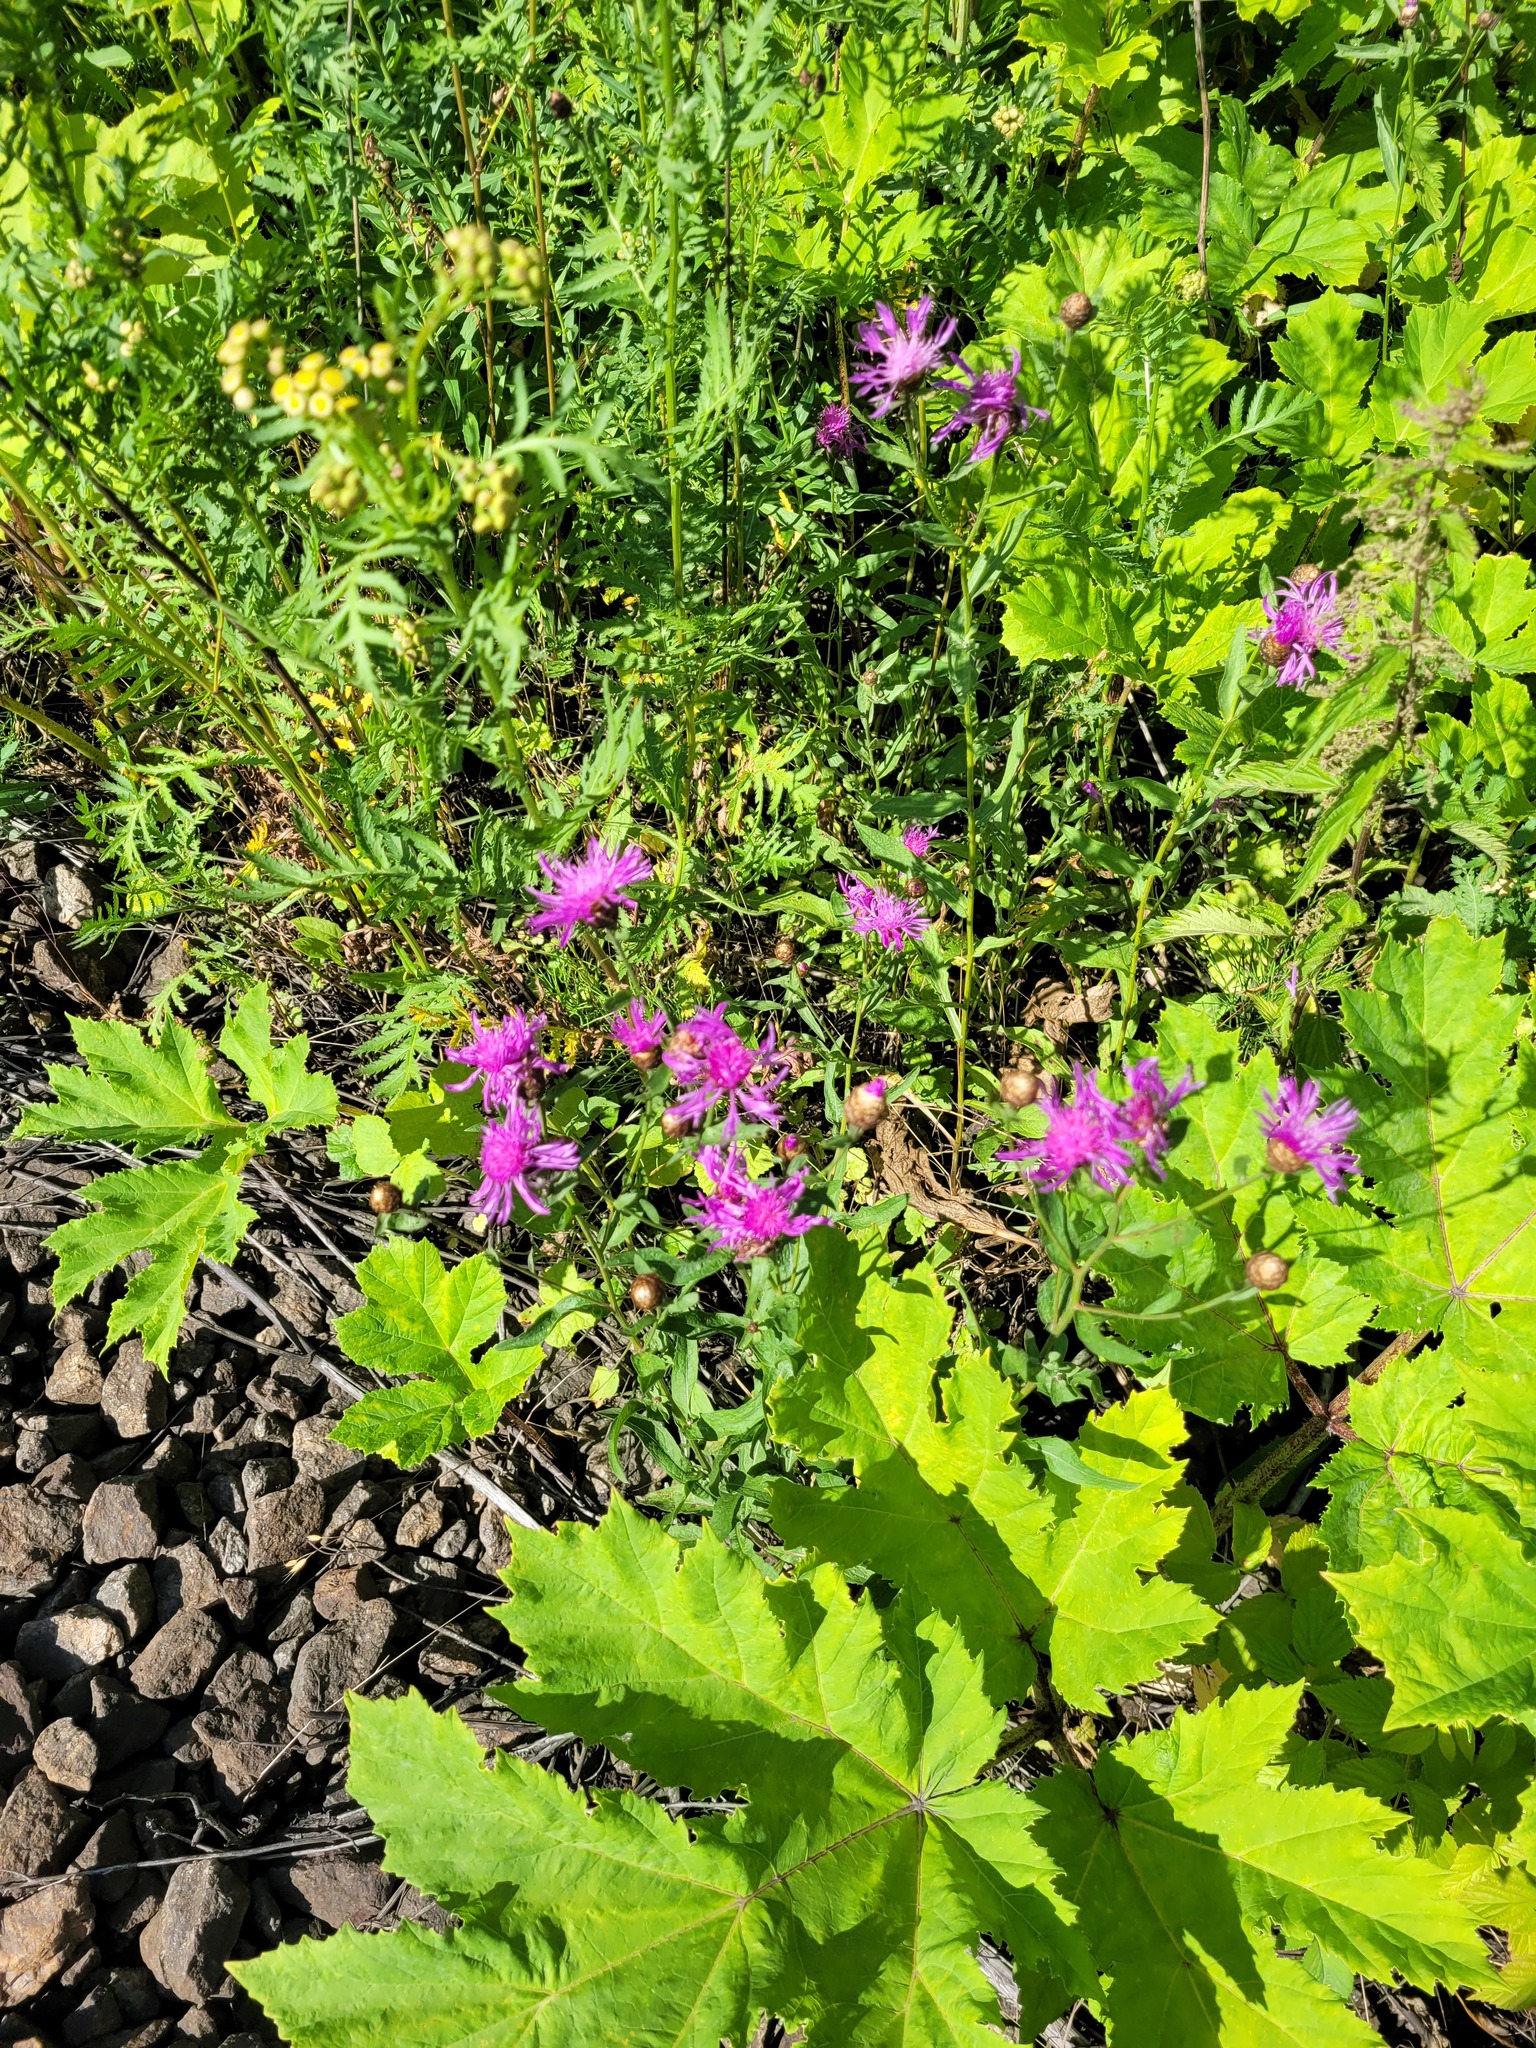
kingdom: Plantae
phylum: Tracheophyta
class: Magnoliopsida
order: Asterales
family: Asteraceae
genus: Centaurea
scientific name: Centaurea jacea
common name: Brown knapweed
